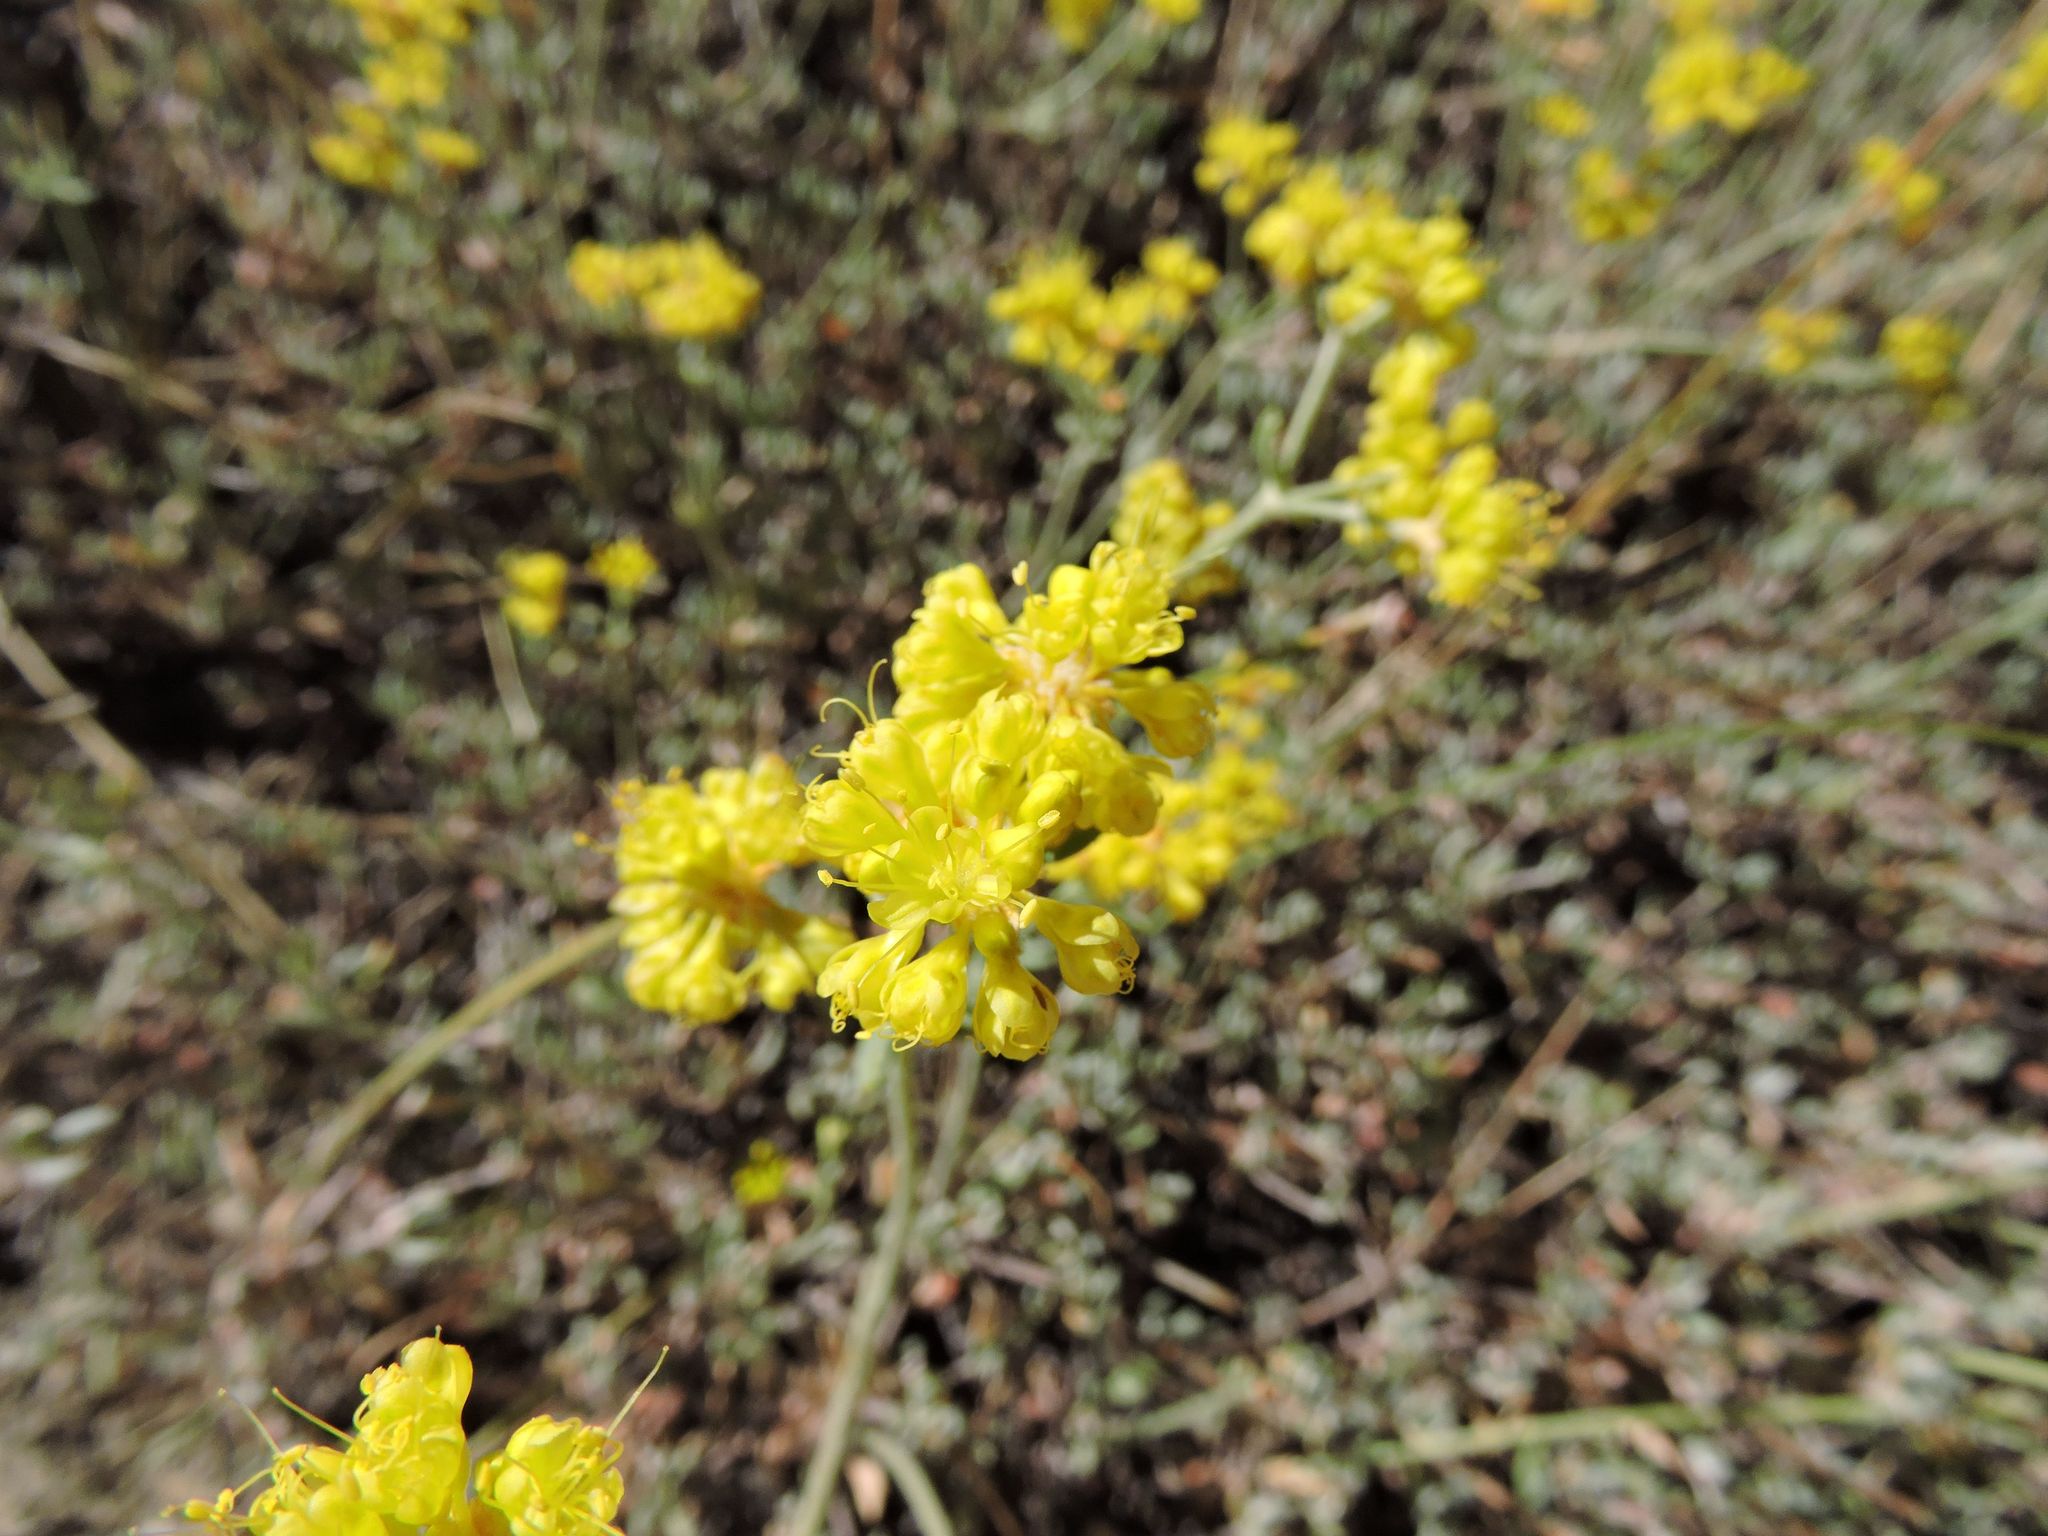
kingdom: Plantae
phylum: Tracheophyta
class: Magnoliopsida
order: Caryophyllales
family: Polygonaceae
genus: Eriogonum
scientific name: Eriogonum umbellatum
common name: Sulfur-buckwheat
